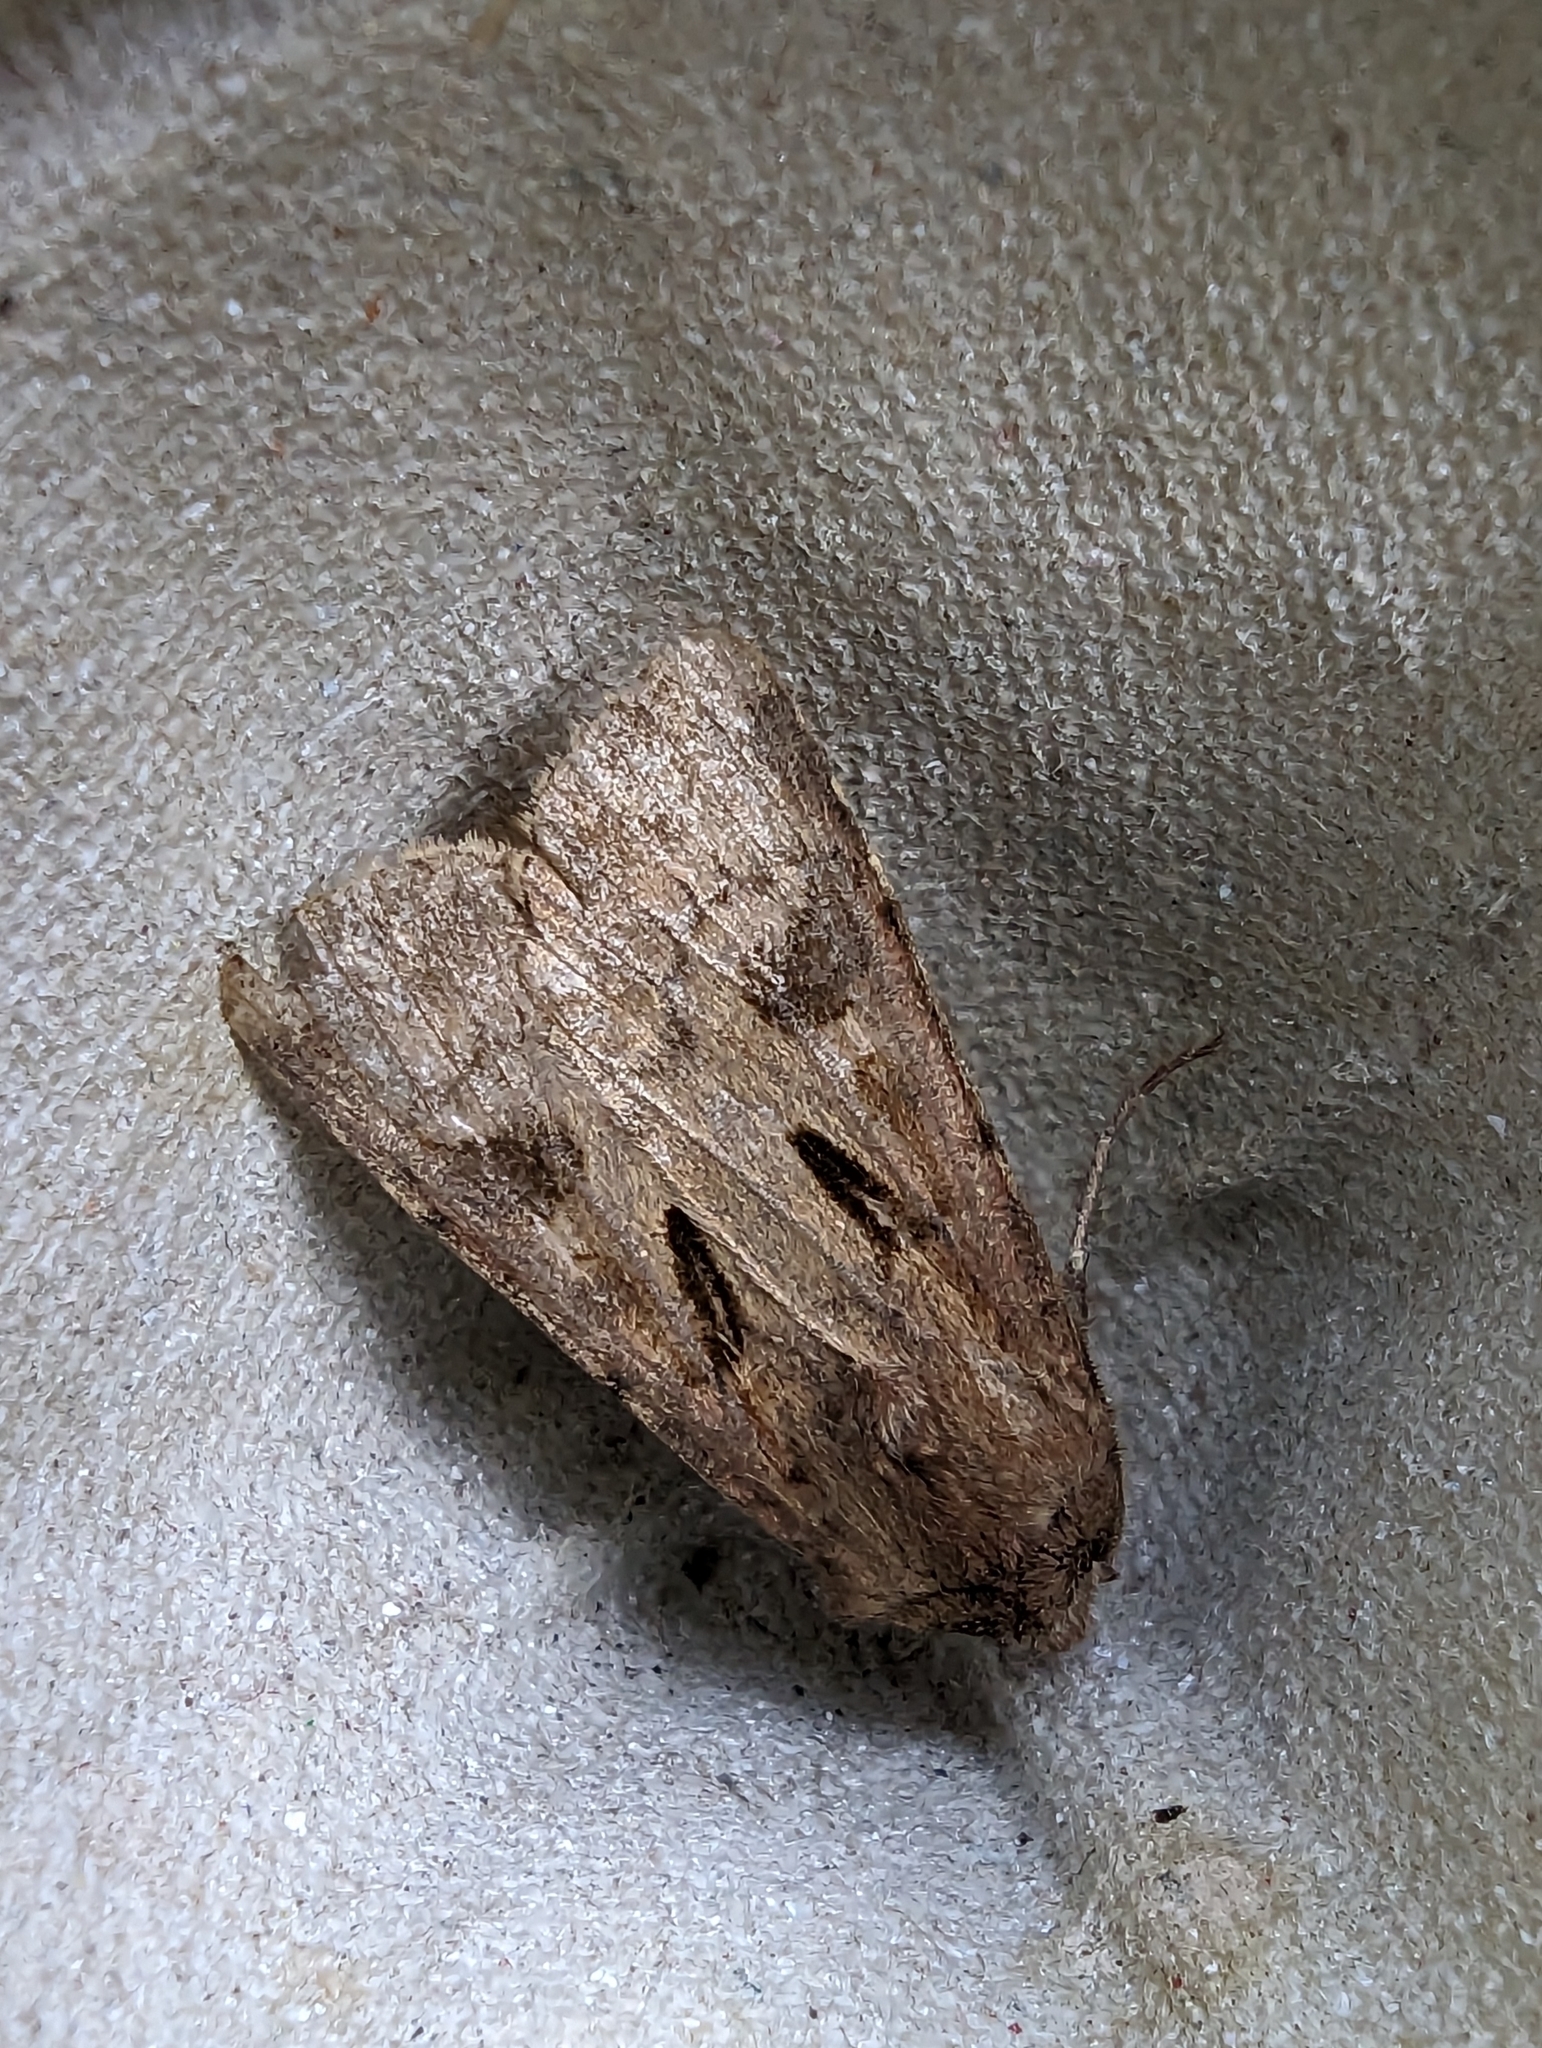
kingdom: Animalia
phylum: Arthropoda
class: Insecta
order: Lepidoptera
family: Noctuidae
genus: Agrotis
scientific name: Agrotis exclamationis
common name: Heart and dart
